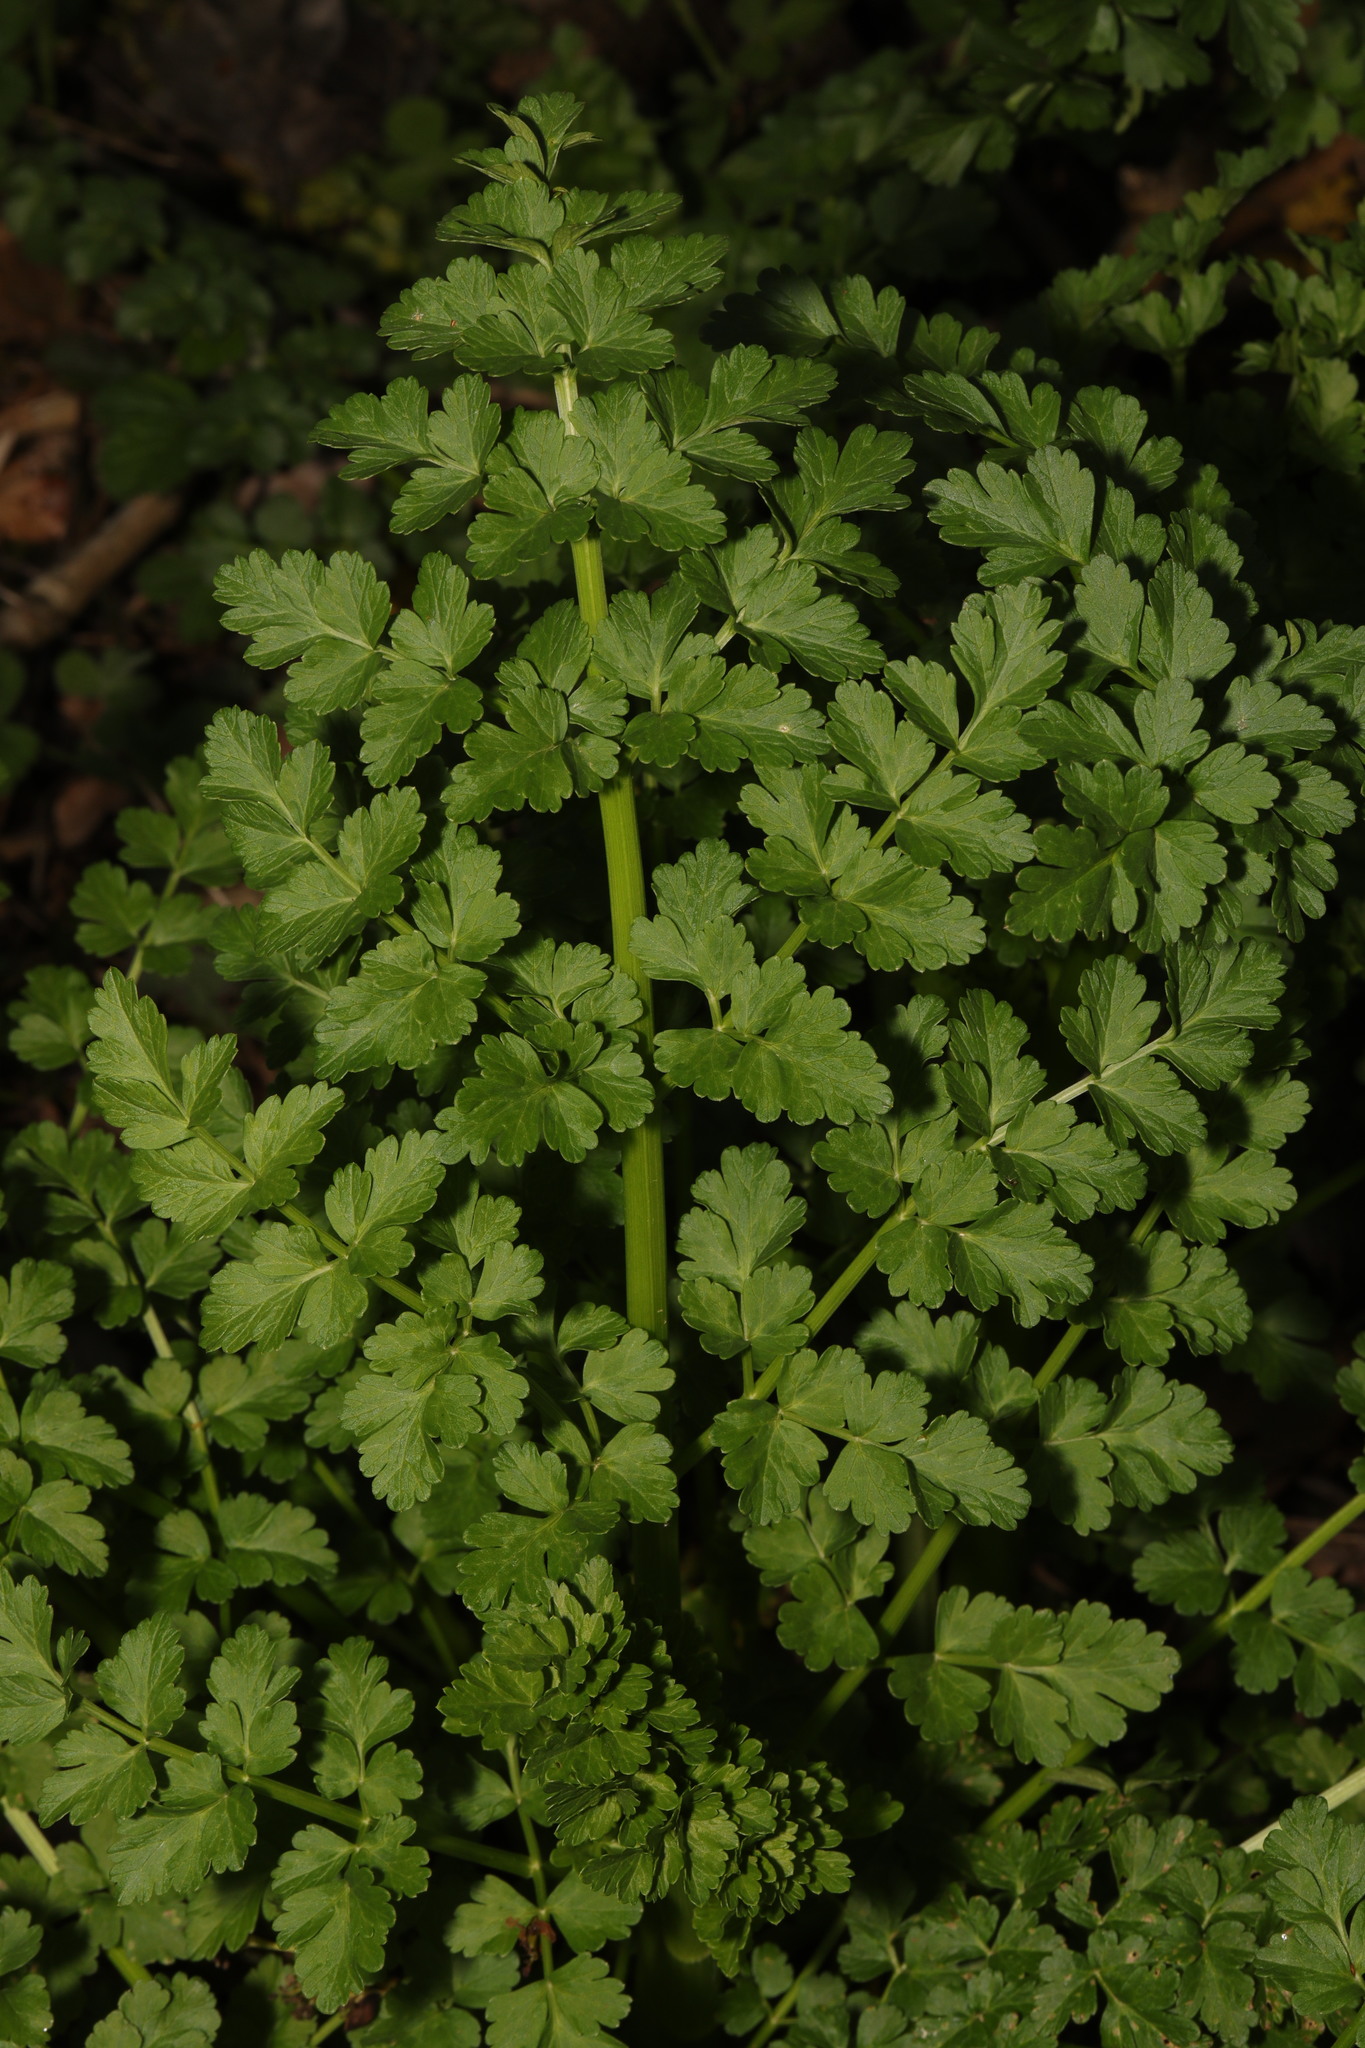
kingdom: Plantae
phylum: Tracheophyta
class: Magnoliopsida
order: Apiales
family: Apiaceae
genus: Oenanthe
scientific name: Oenanthe crocata
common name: Hemlock water-dropwort
